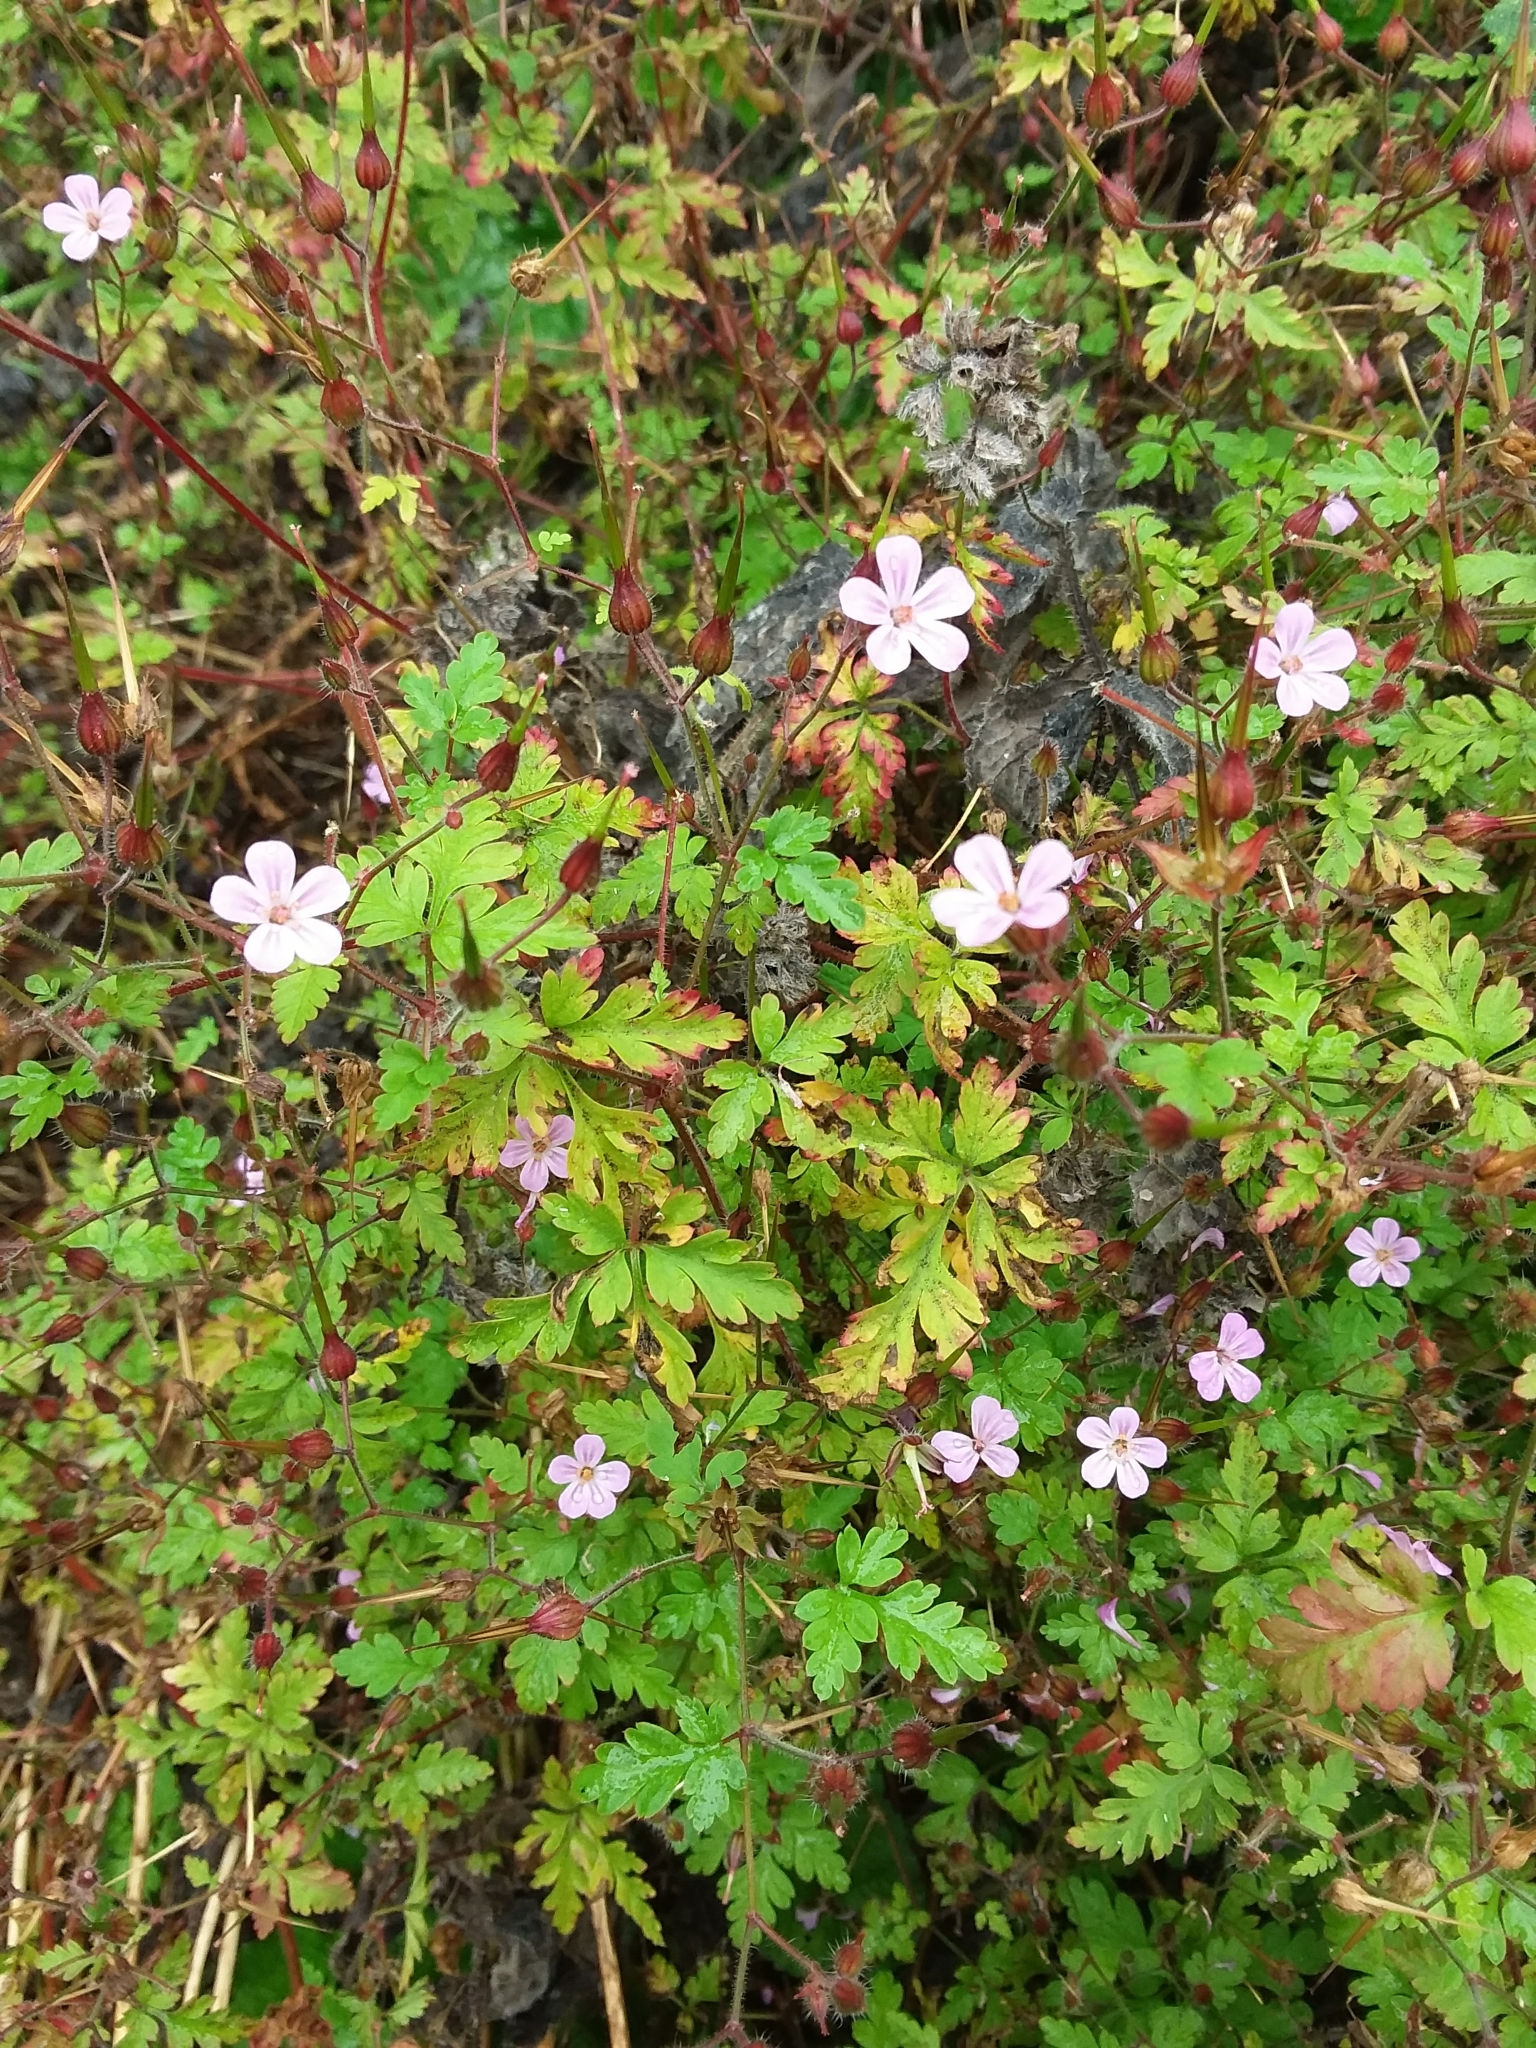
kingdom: Plantae
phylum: Tracheophyta
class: Magnoliopsida
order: Geraniales
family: Geraniaceae
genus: Geranium
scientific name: Geranium robertianum
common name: Herb-robert
